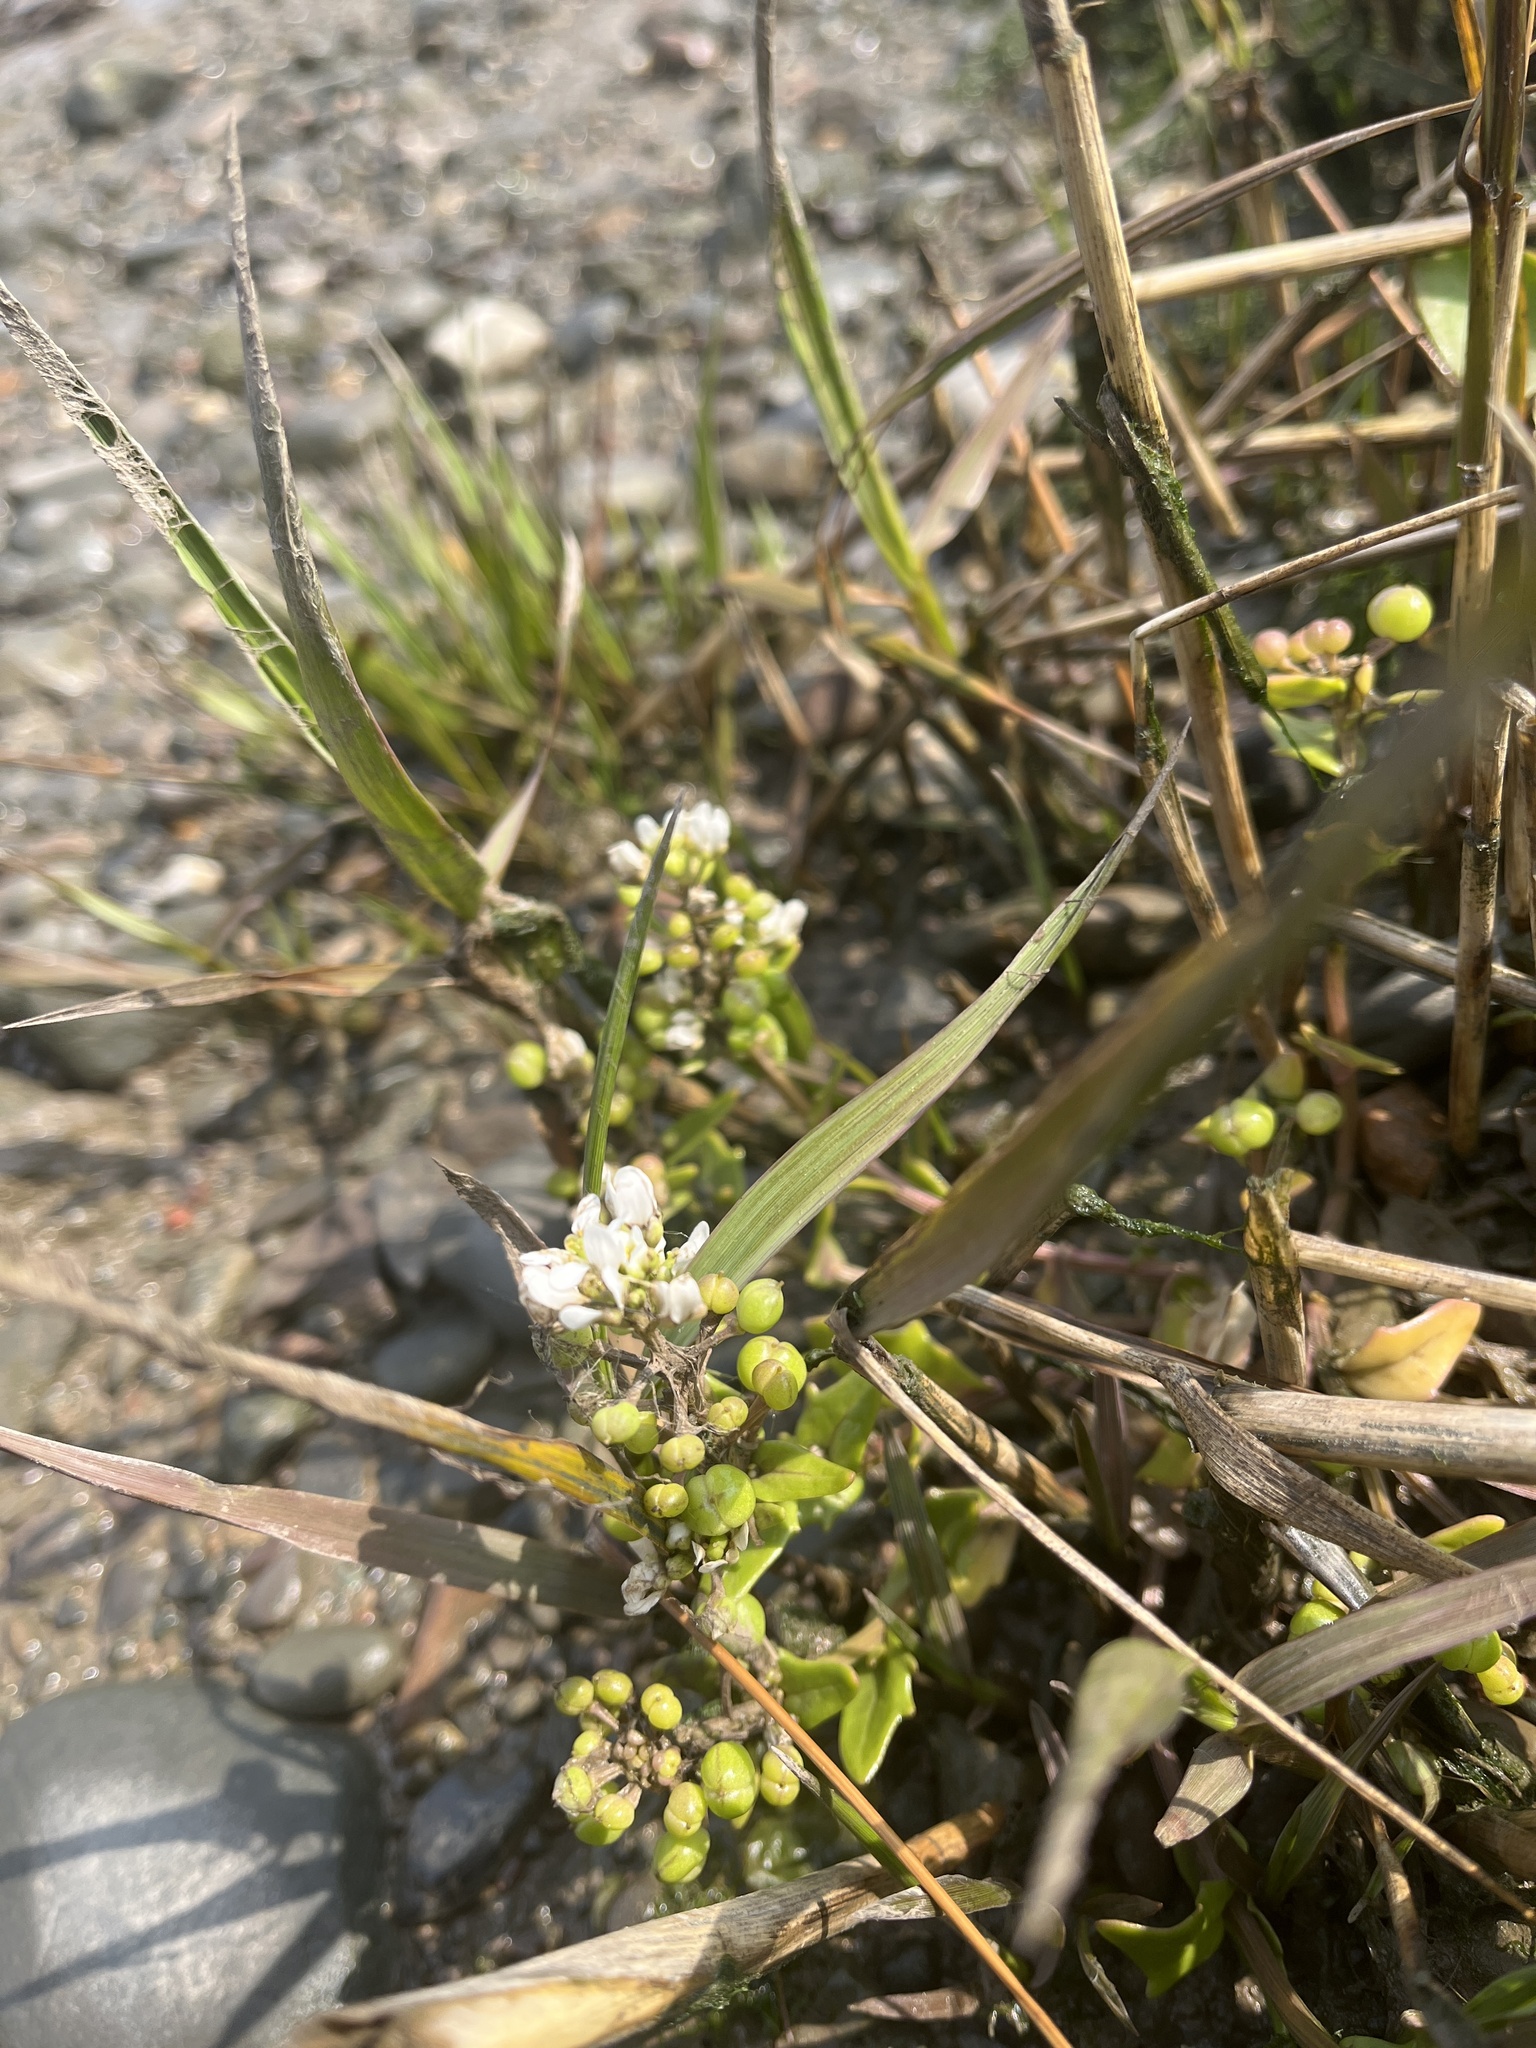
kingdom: Plantae
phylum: Tracheophyta
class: Magnoliopsida
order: Brassicales
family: Brassicaceae
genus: Cochlearia
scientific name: Cochlearia hollandica
